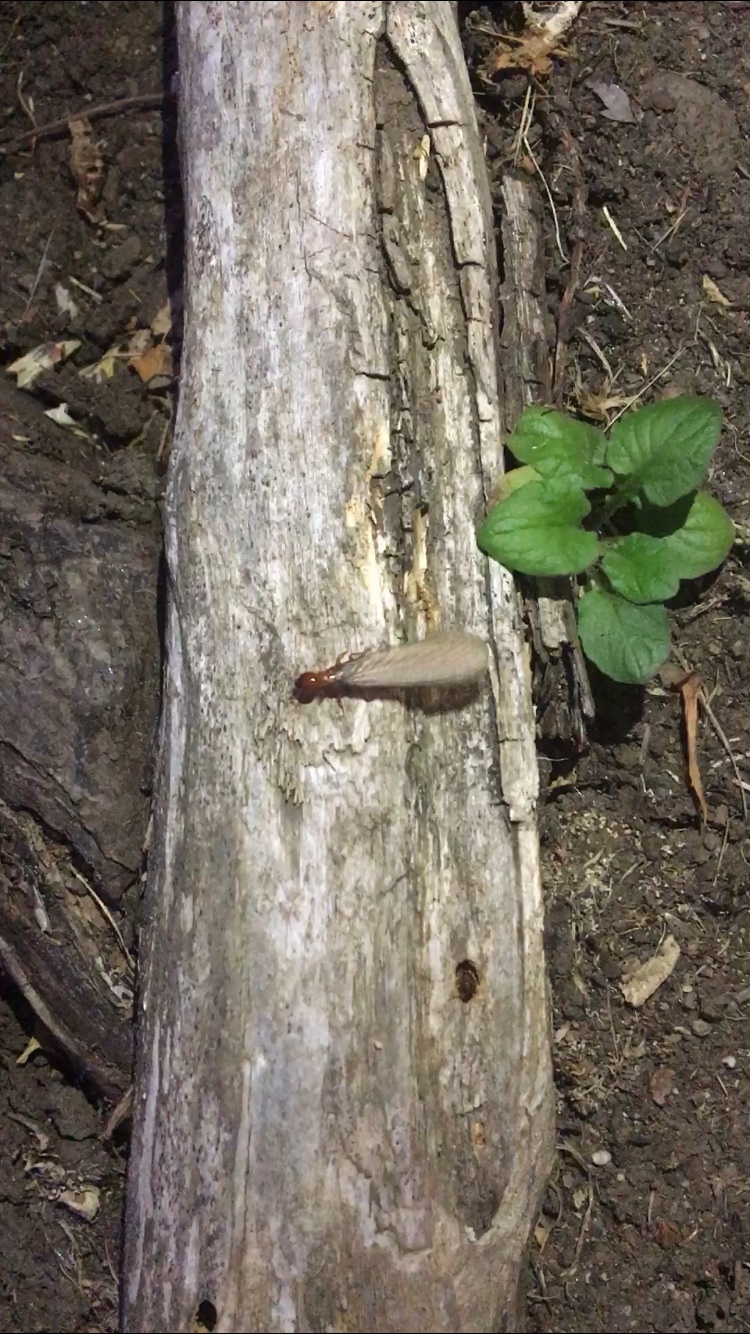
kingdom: Animalia
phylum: Arthropoda
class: Insecta
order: Blattodea
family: Archotermopsidae
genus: Zootermopsis
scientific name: Zootermopsis angusticollis
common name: Rottenwood termite
